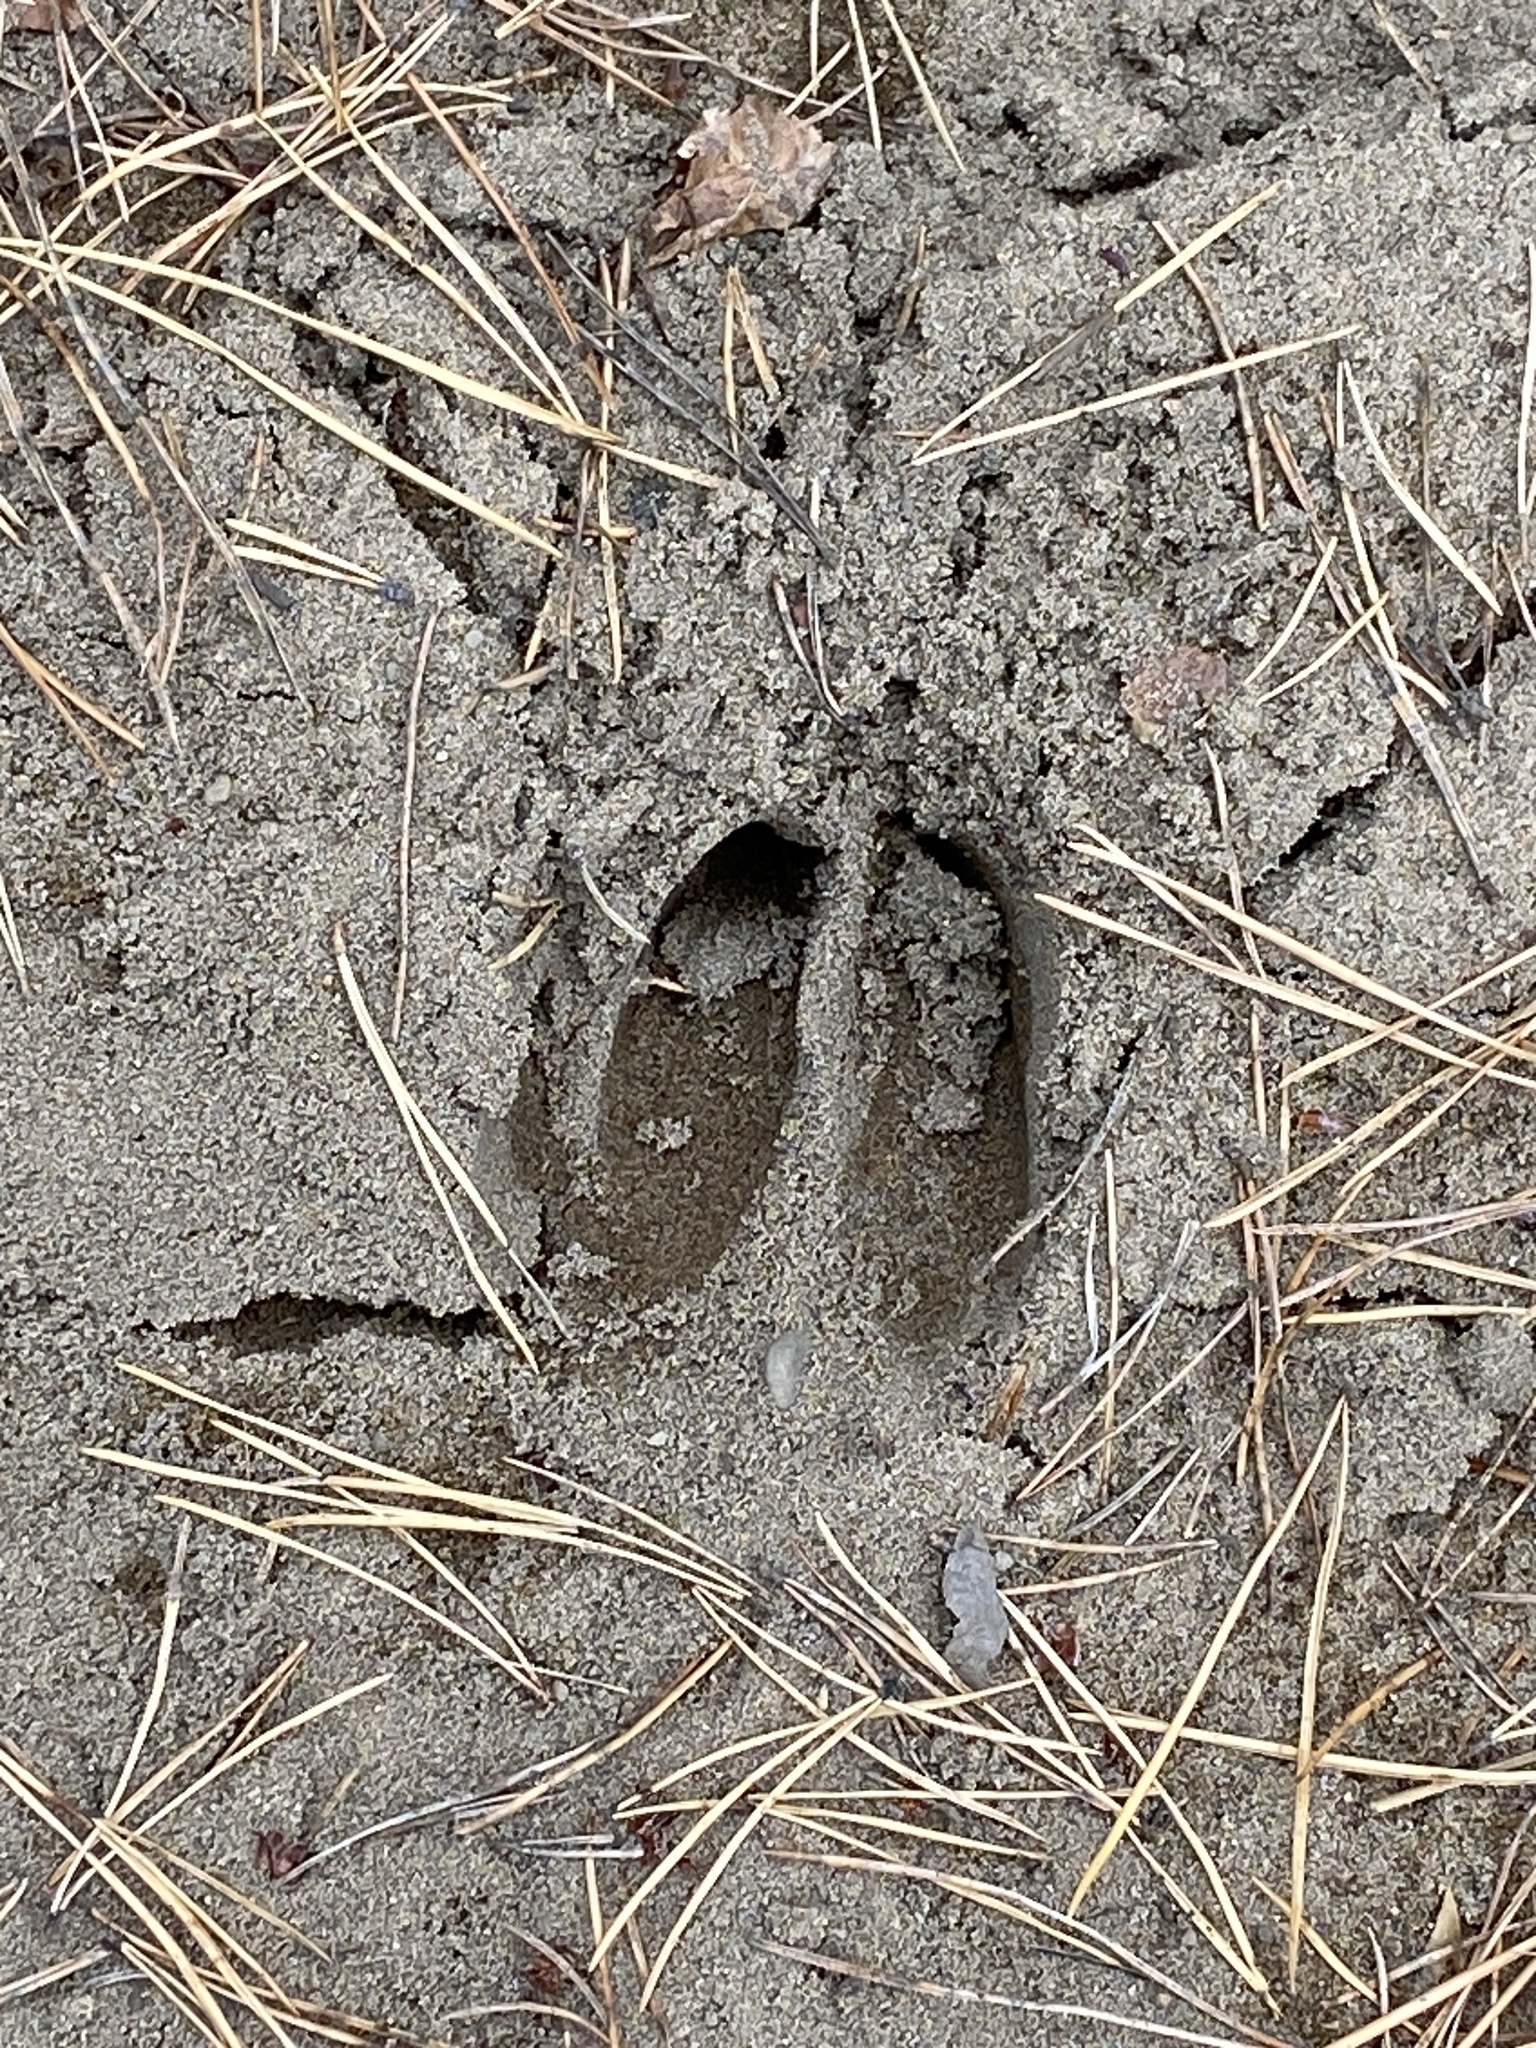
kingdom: Animalia
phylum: Chordata
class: Mammalia
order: Artiodactyla
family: Cervidae
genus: Odocoileus
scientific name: Odocoileus virginianus
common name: White-tailed deer
